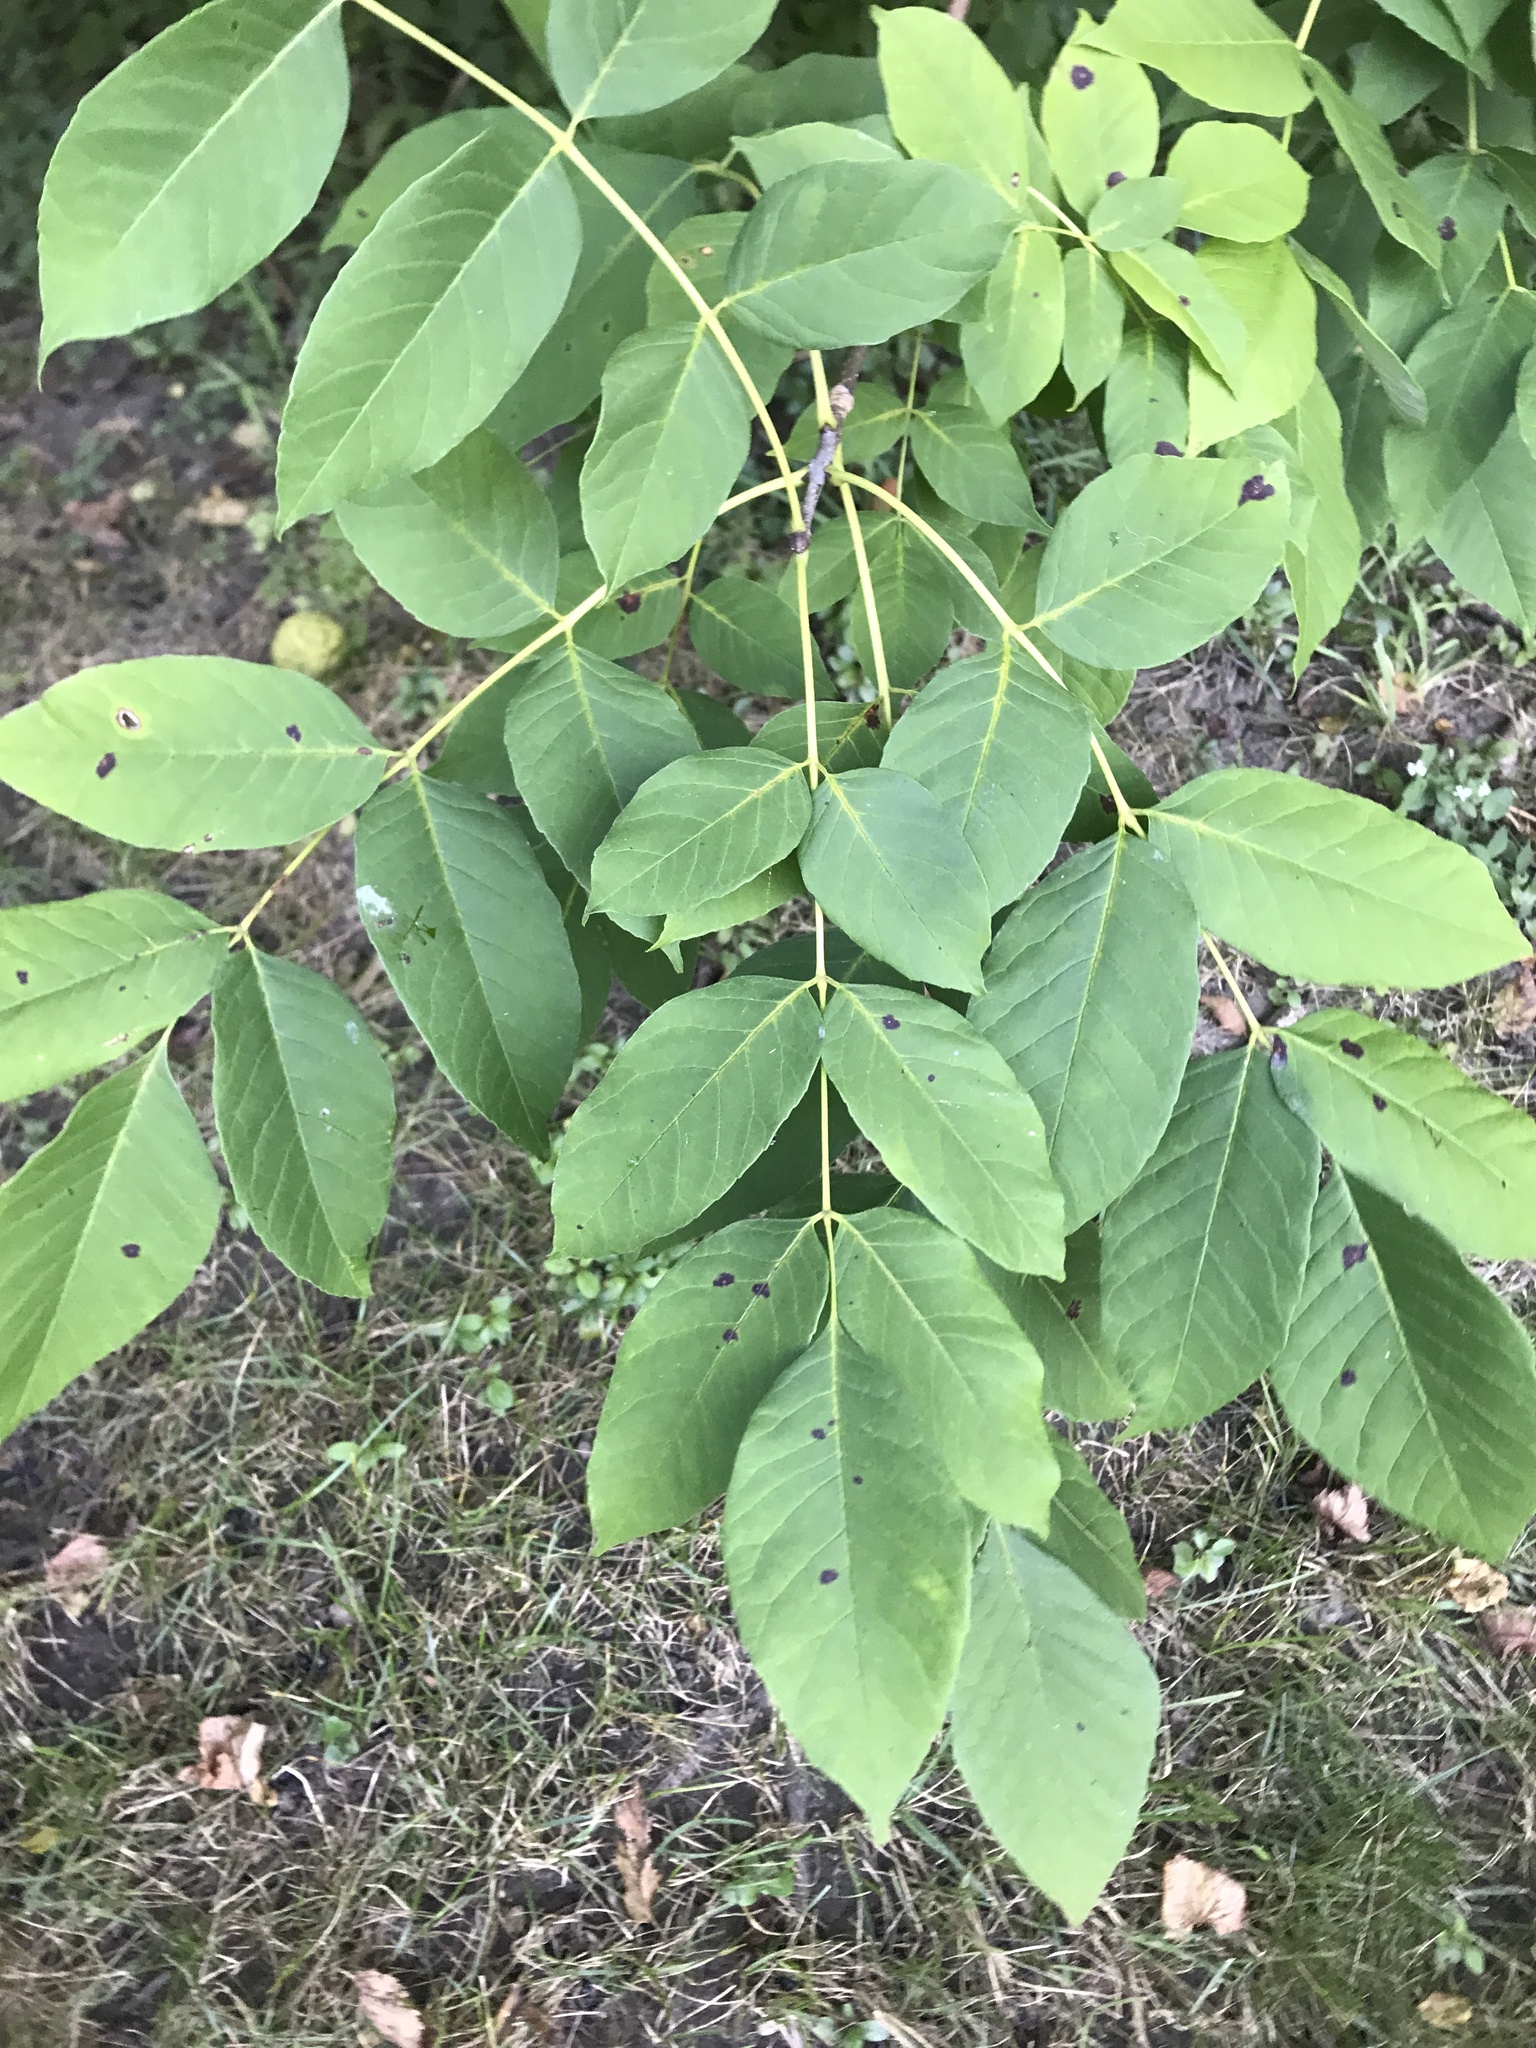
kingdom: Plantae
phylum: Tracheophyta
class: Magnoliopsida
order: Lamiales
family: Oleaceae
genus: Fraxinus
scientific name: Fraxinus americana
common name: White ash
